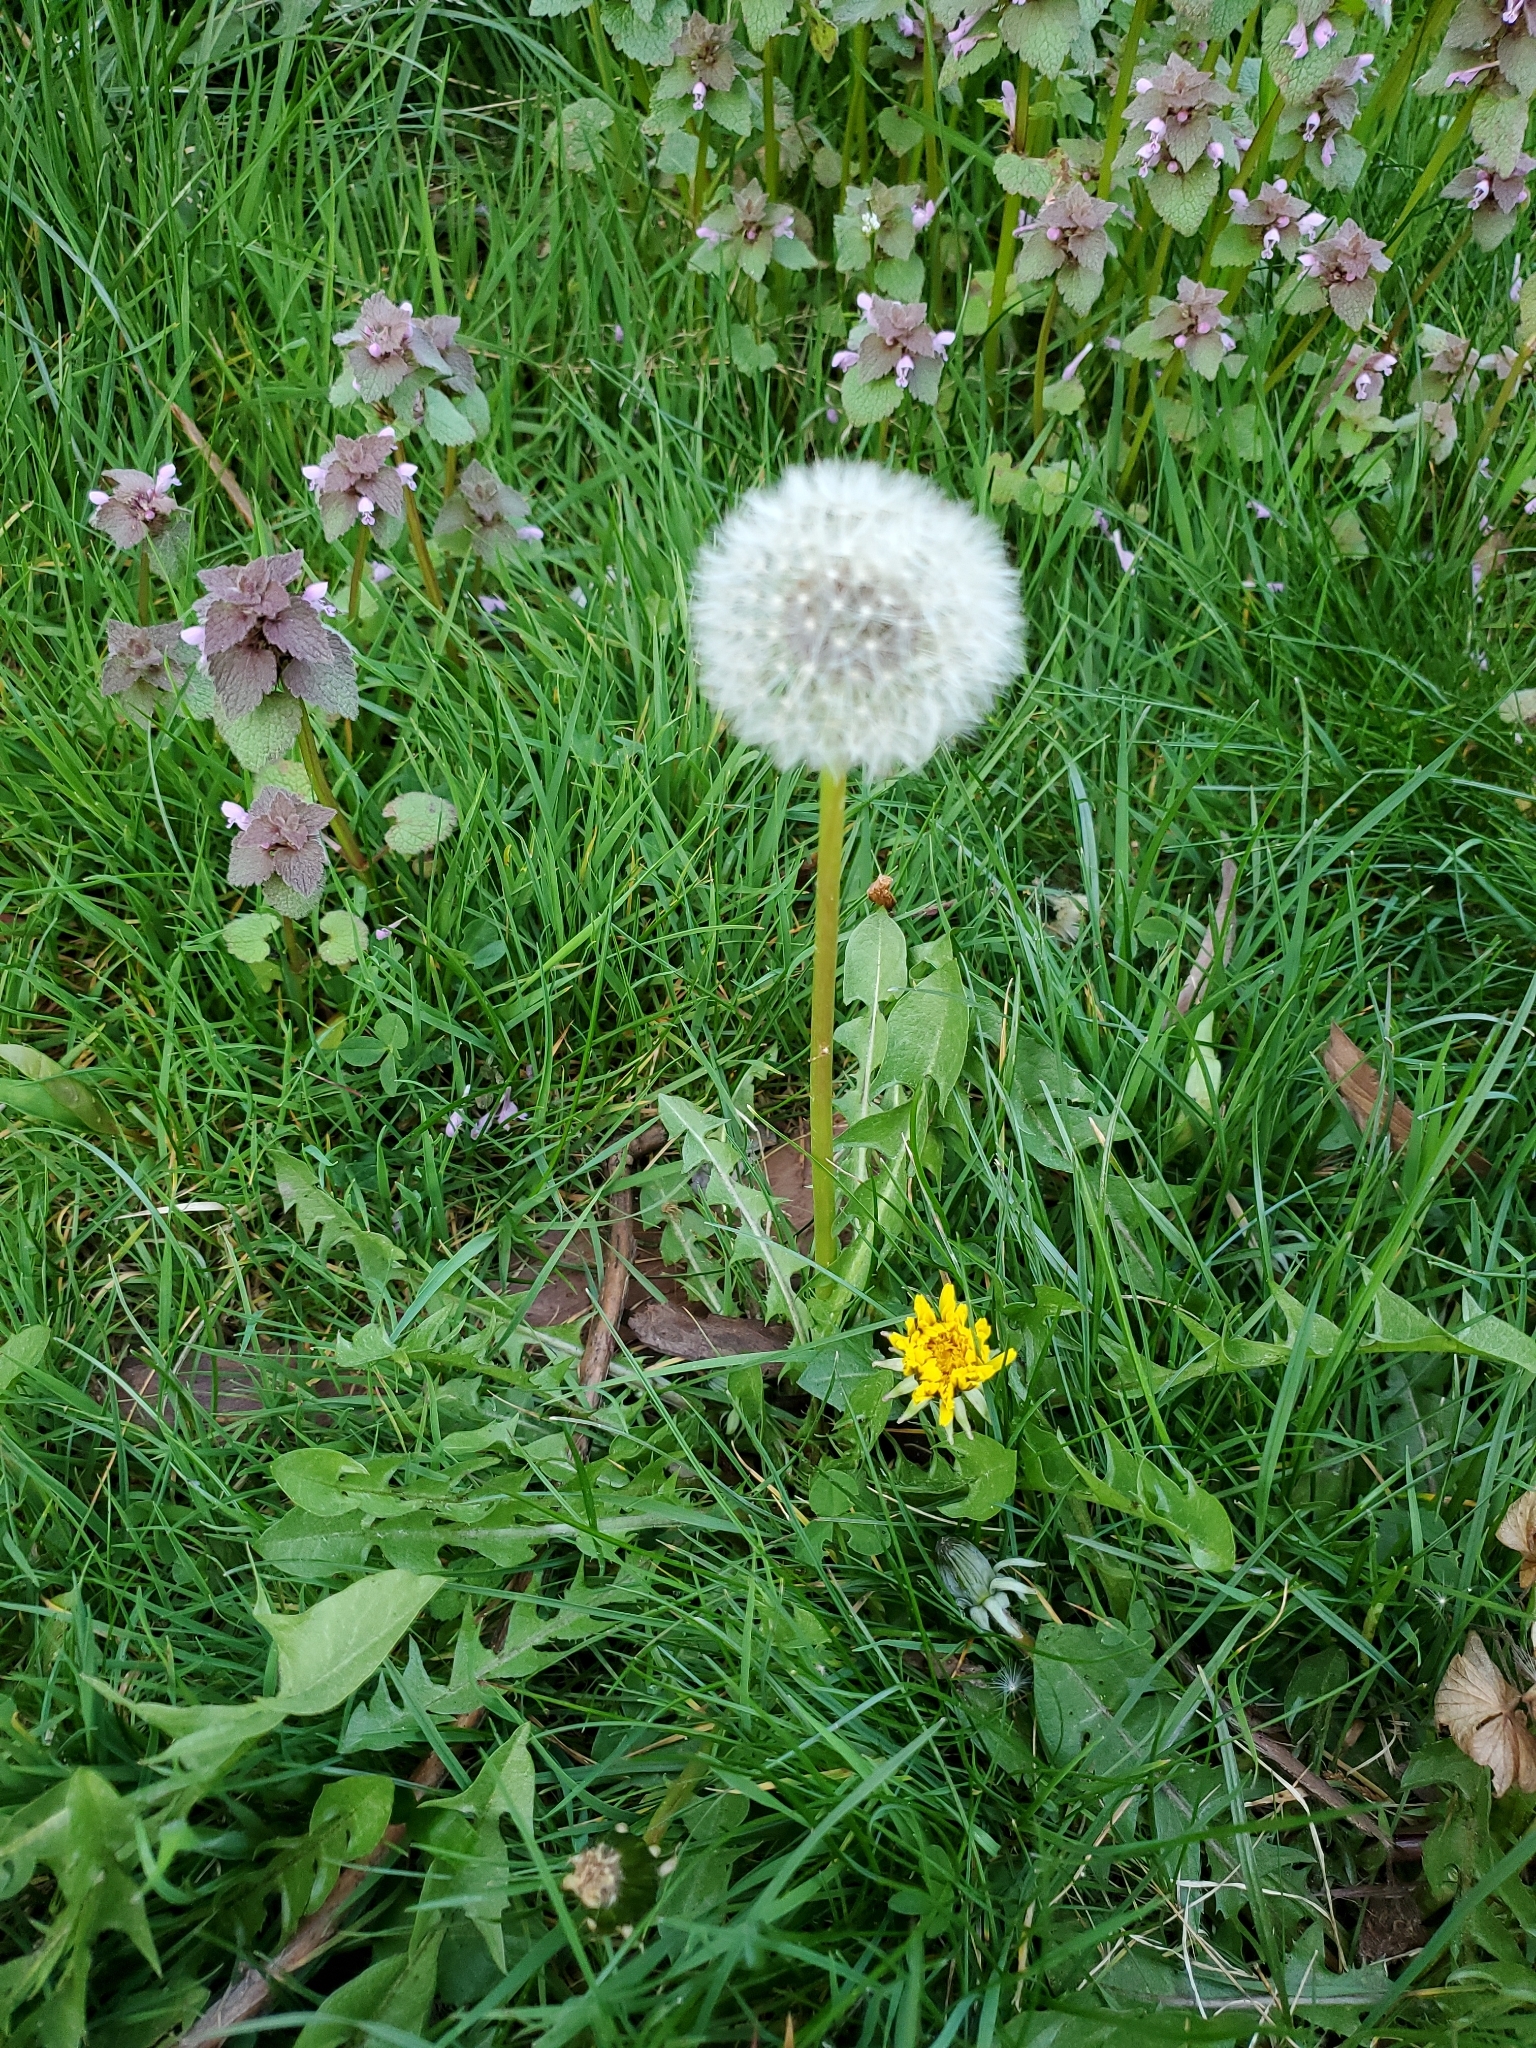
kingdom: Plantae
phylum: Tracheophyta
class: Magnoliopsida
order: Asterales
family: Asteraceae
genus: Taraxacum
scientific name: Taraxacum erythrospermum
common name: Rock dandelion
